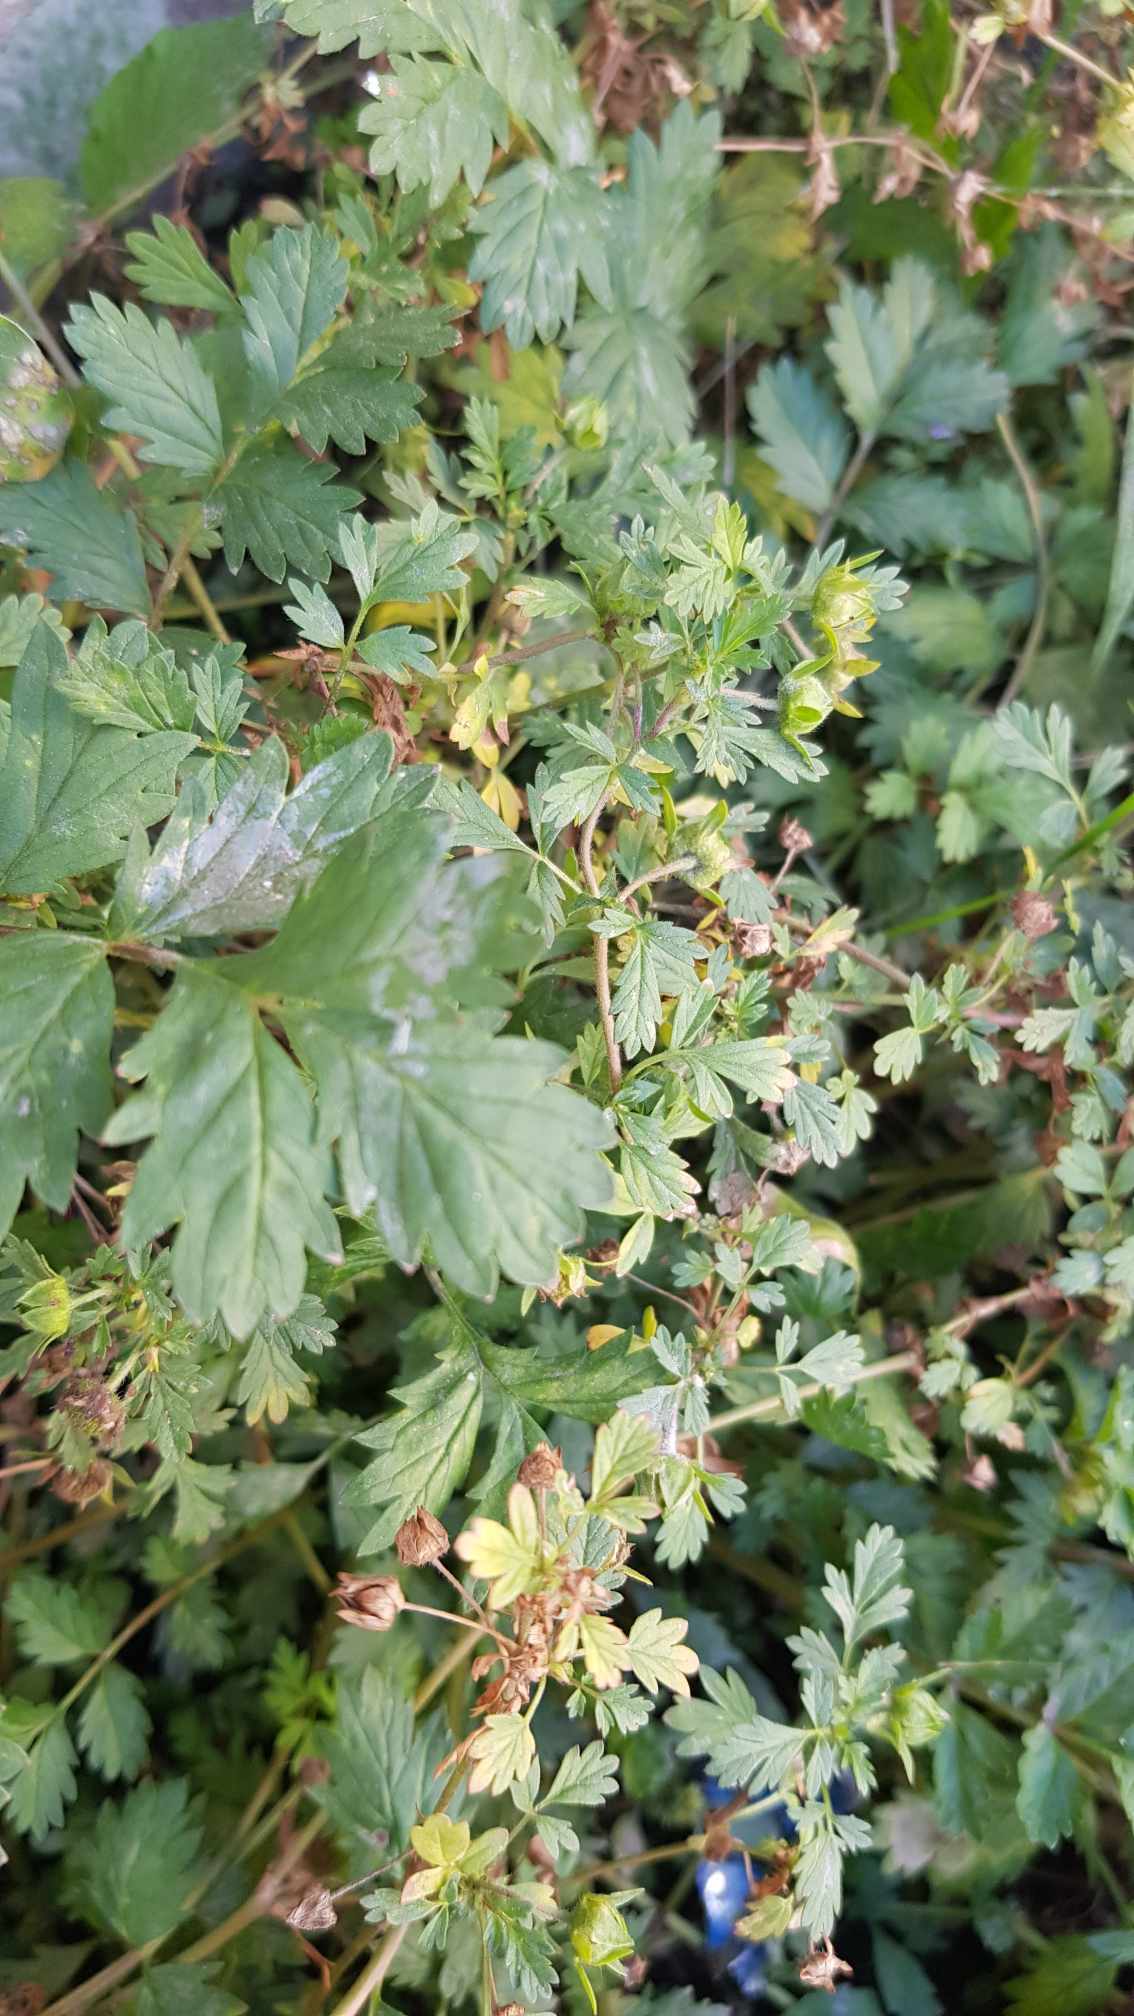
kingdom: Plantae
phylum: Tracheophyta
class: Magnoliopsida
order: Rosales
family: Rosaceae
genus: Potentilla
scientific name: Potentilla supina
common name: Prostrate cinquefoil
